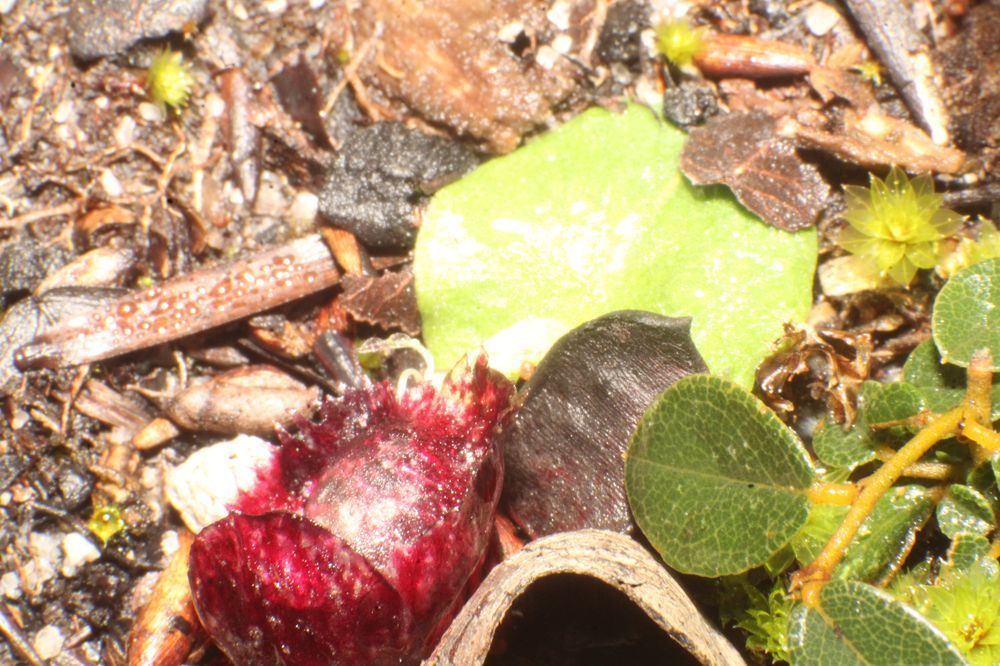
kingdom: Plantae
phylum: Tracheophyta
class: Liliopsida
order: Asparagales
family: Orchidaceae
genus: Corybas
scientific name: Corybas recurvus
